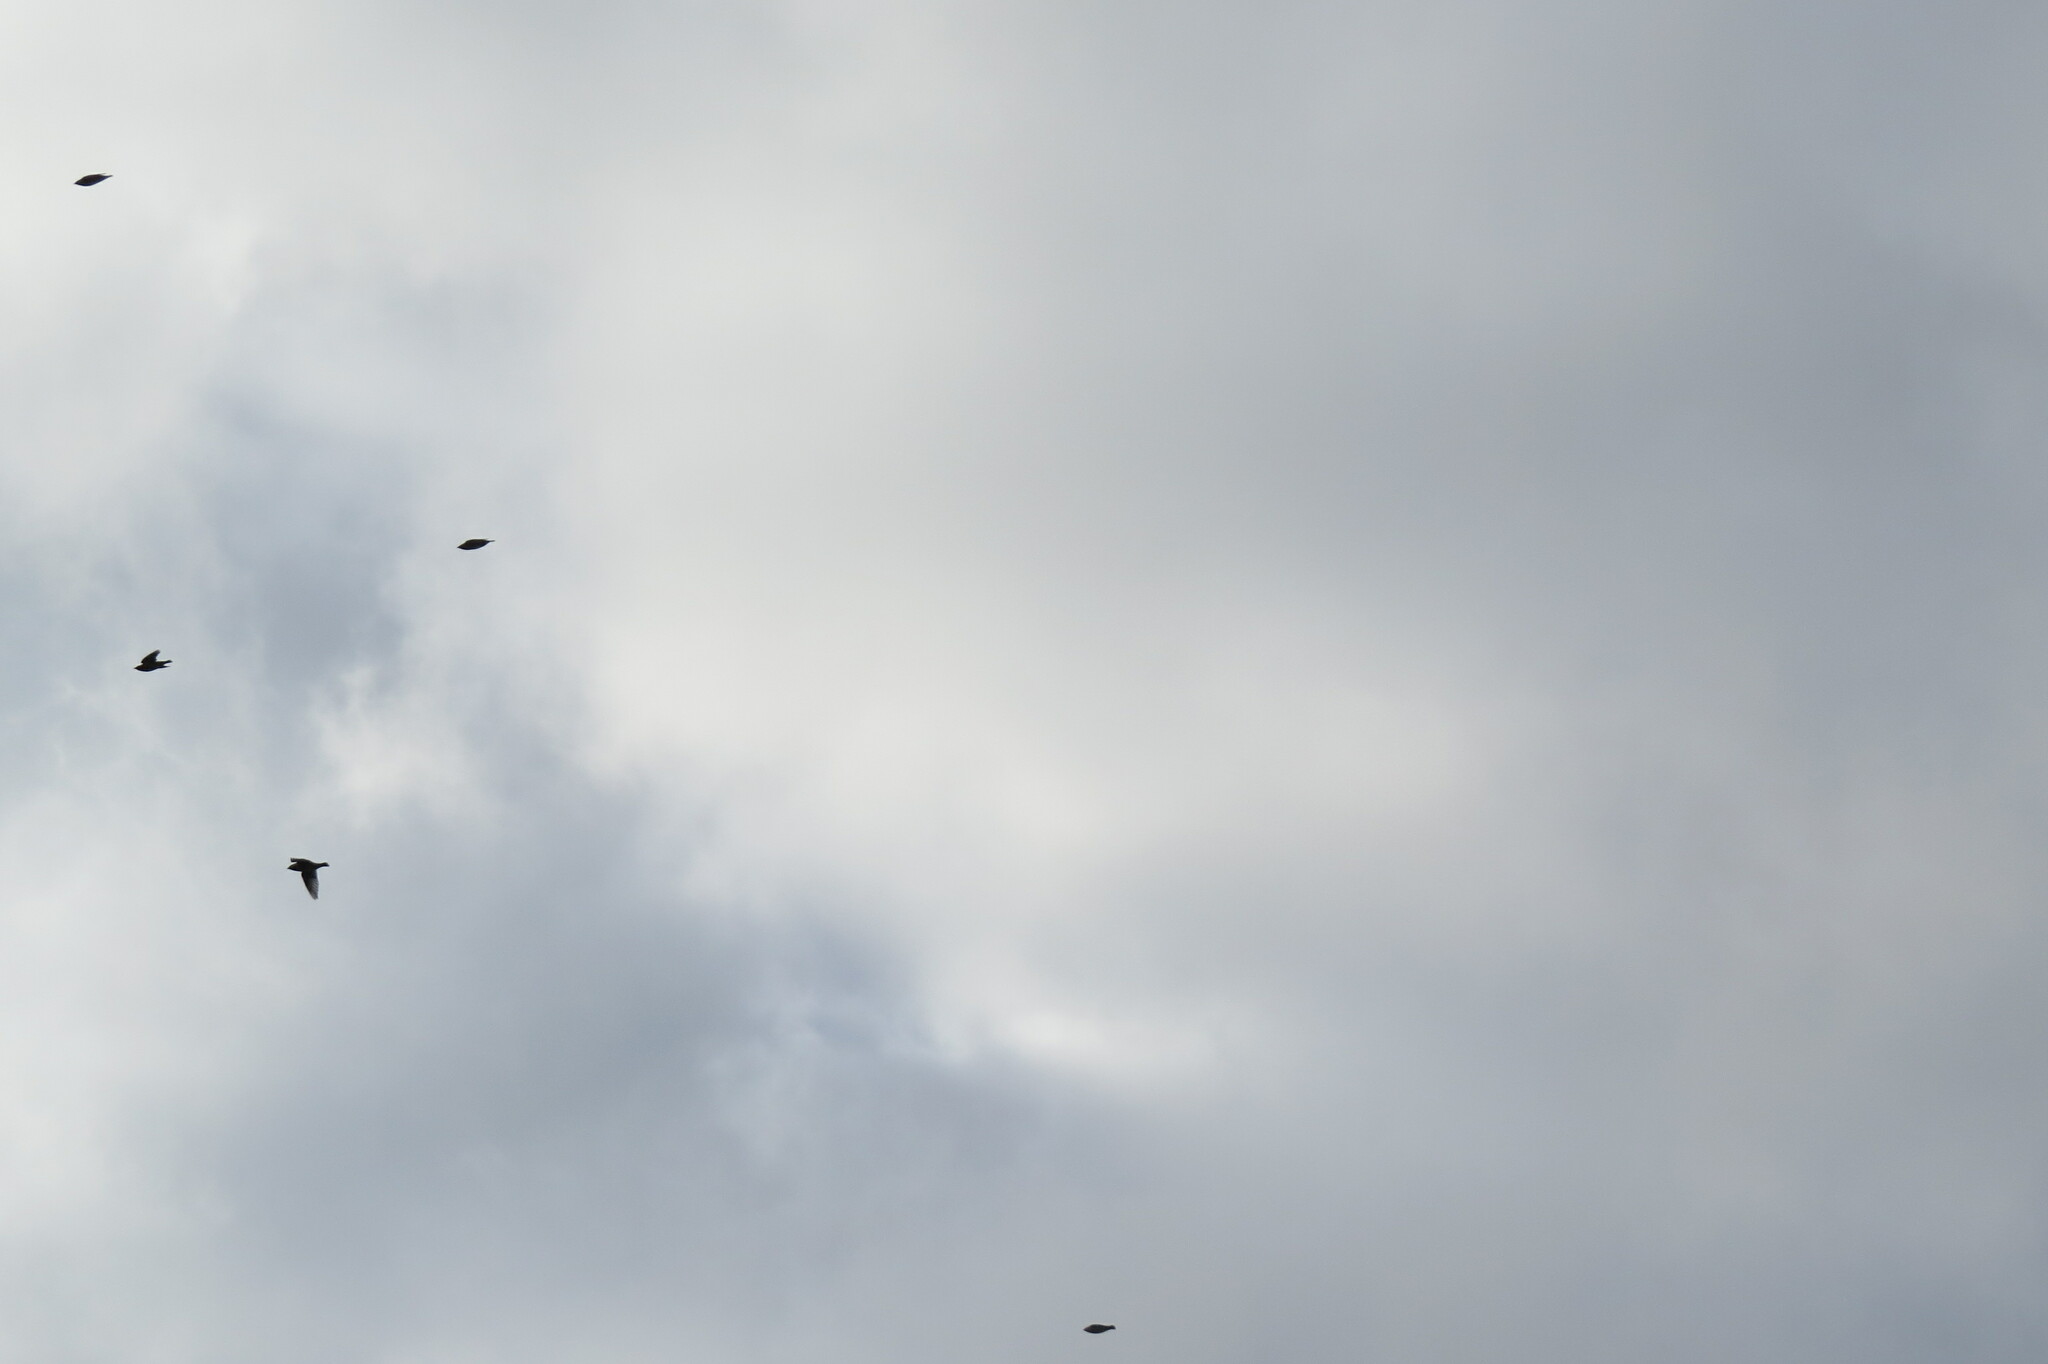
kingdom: Animalia
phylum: Chordata
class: Aves
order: Passeriformes
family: Bombycillidae
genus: Bombycilla
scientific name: Bombycilla garrulus
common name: Bohemian waxwing
